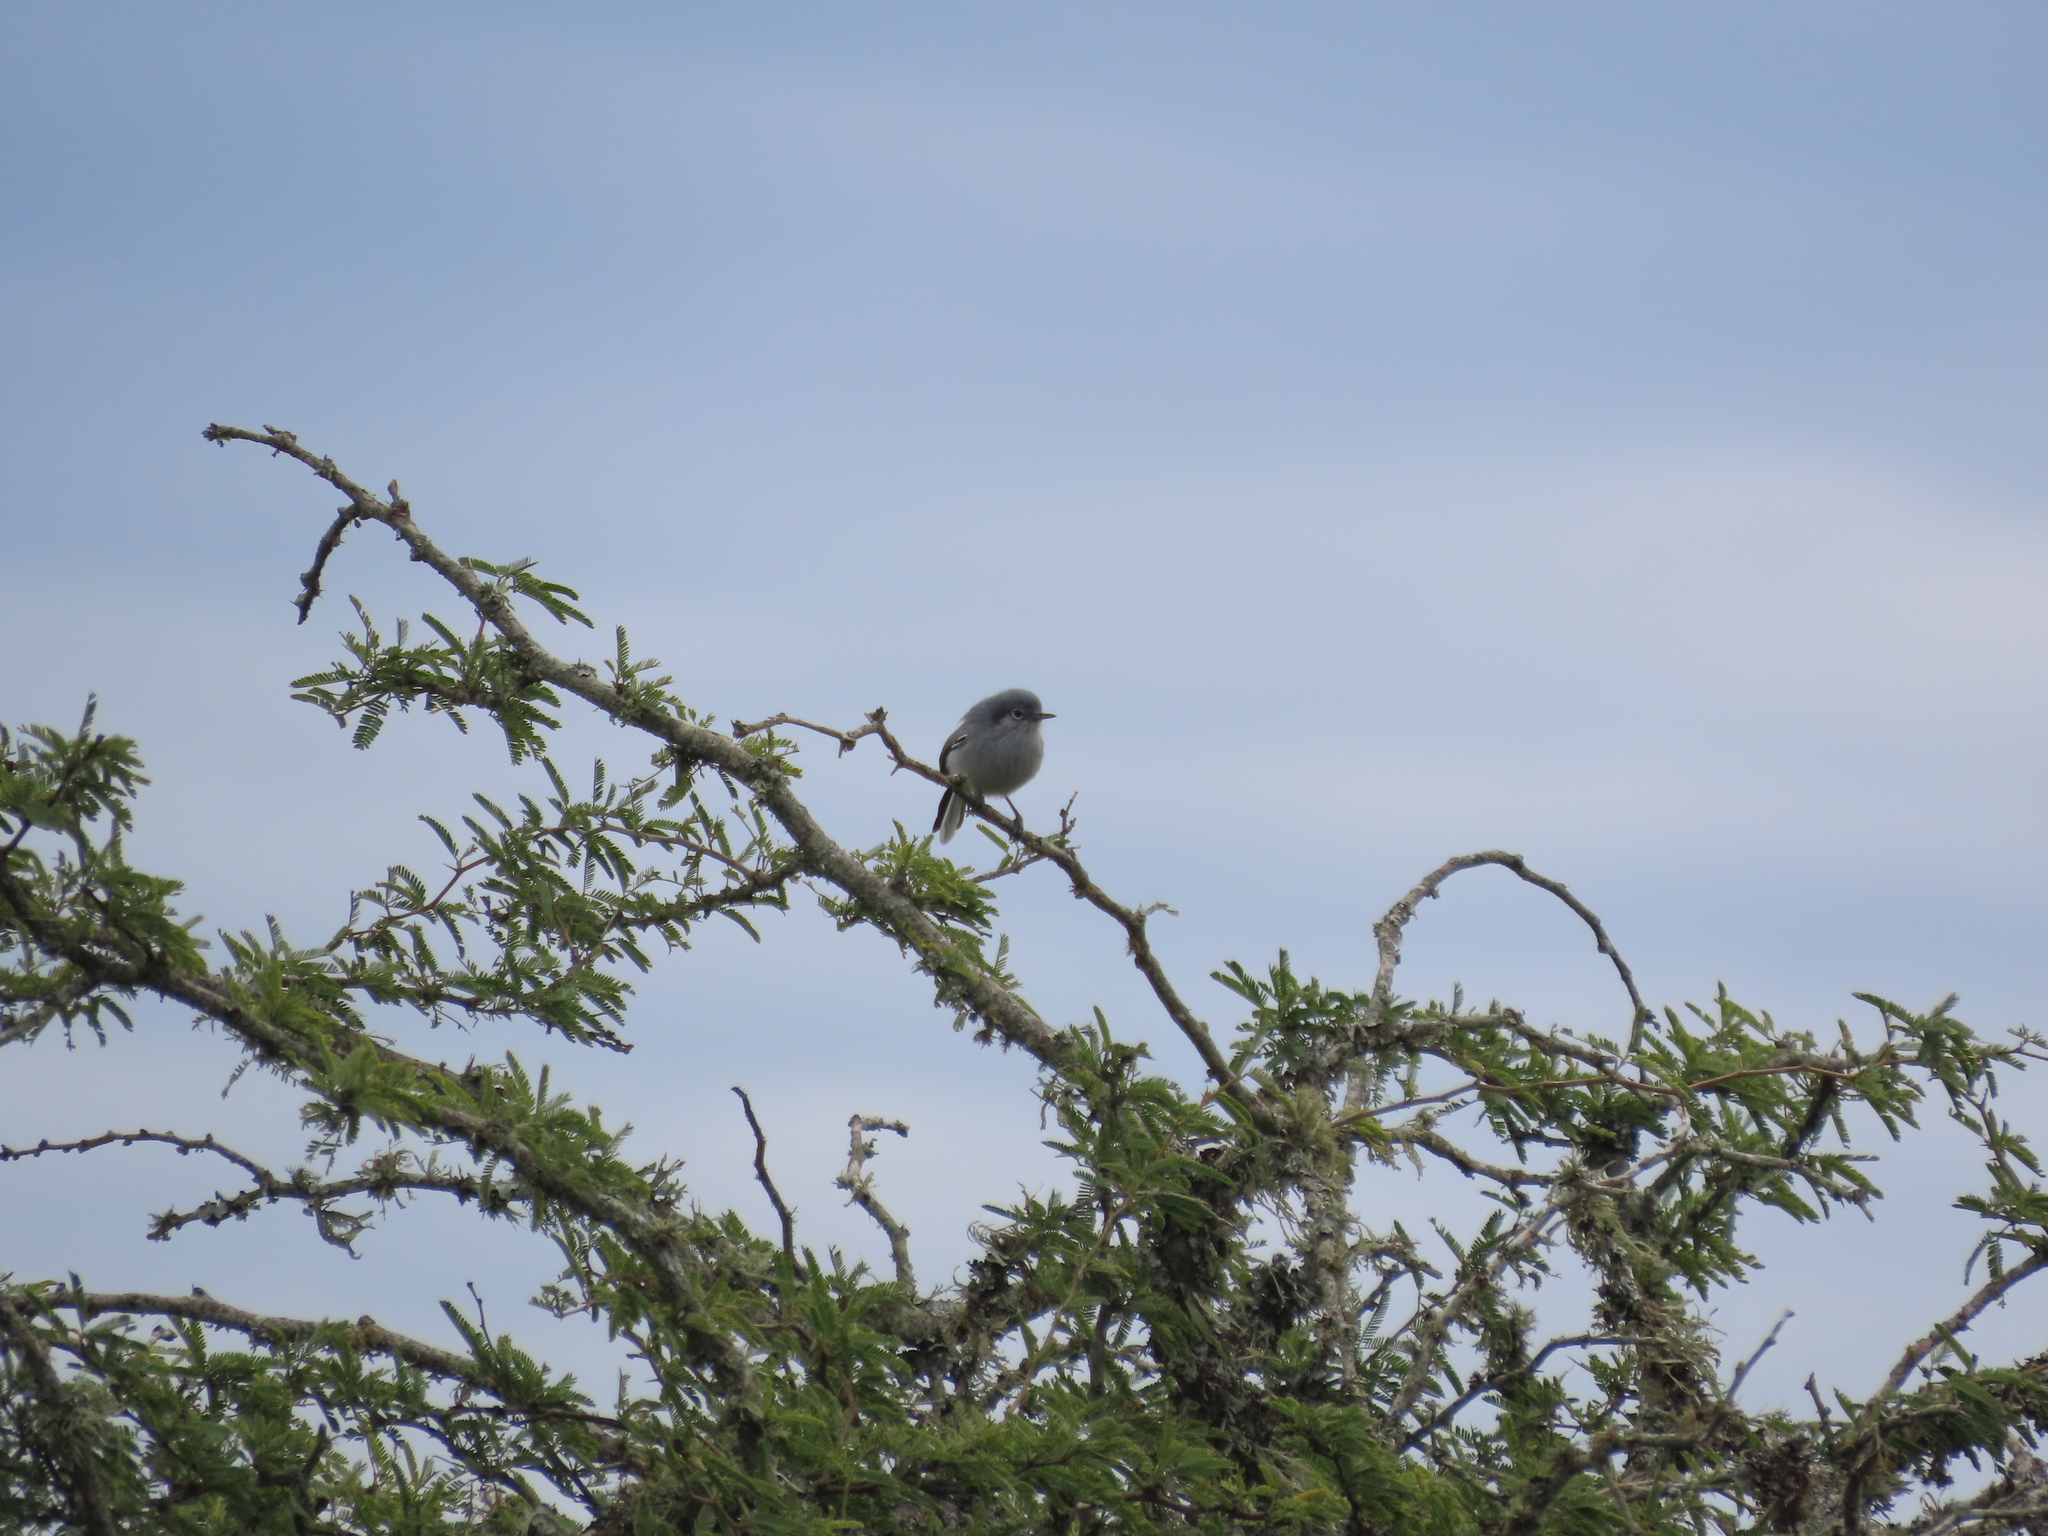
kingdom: Animalia
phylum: Chordata
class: Aves
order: Passeriformes
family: Polioptilidae
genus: Polioptila
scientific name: Polioptila dumicola
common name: Masked gnatcatcher
